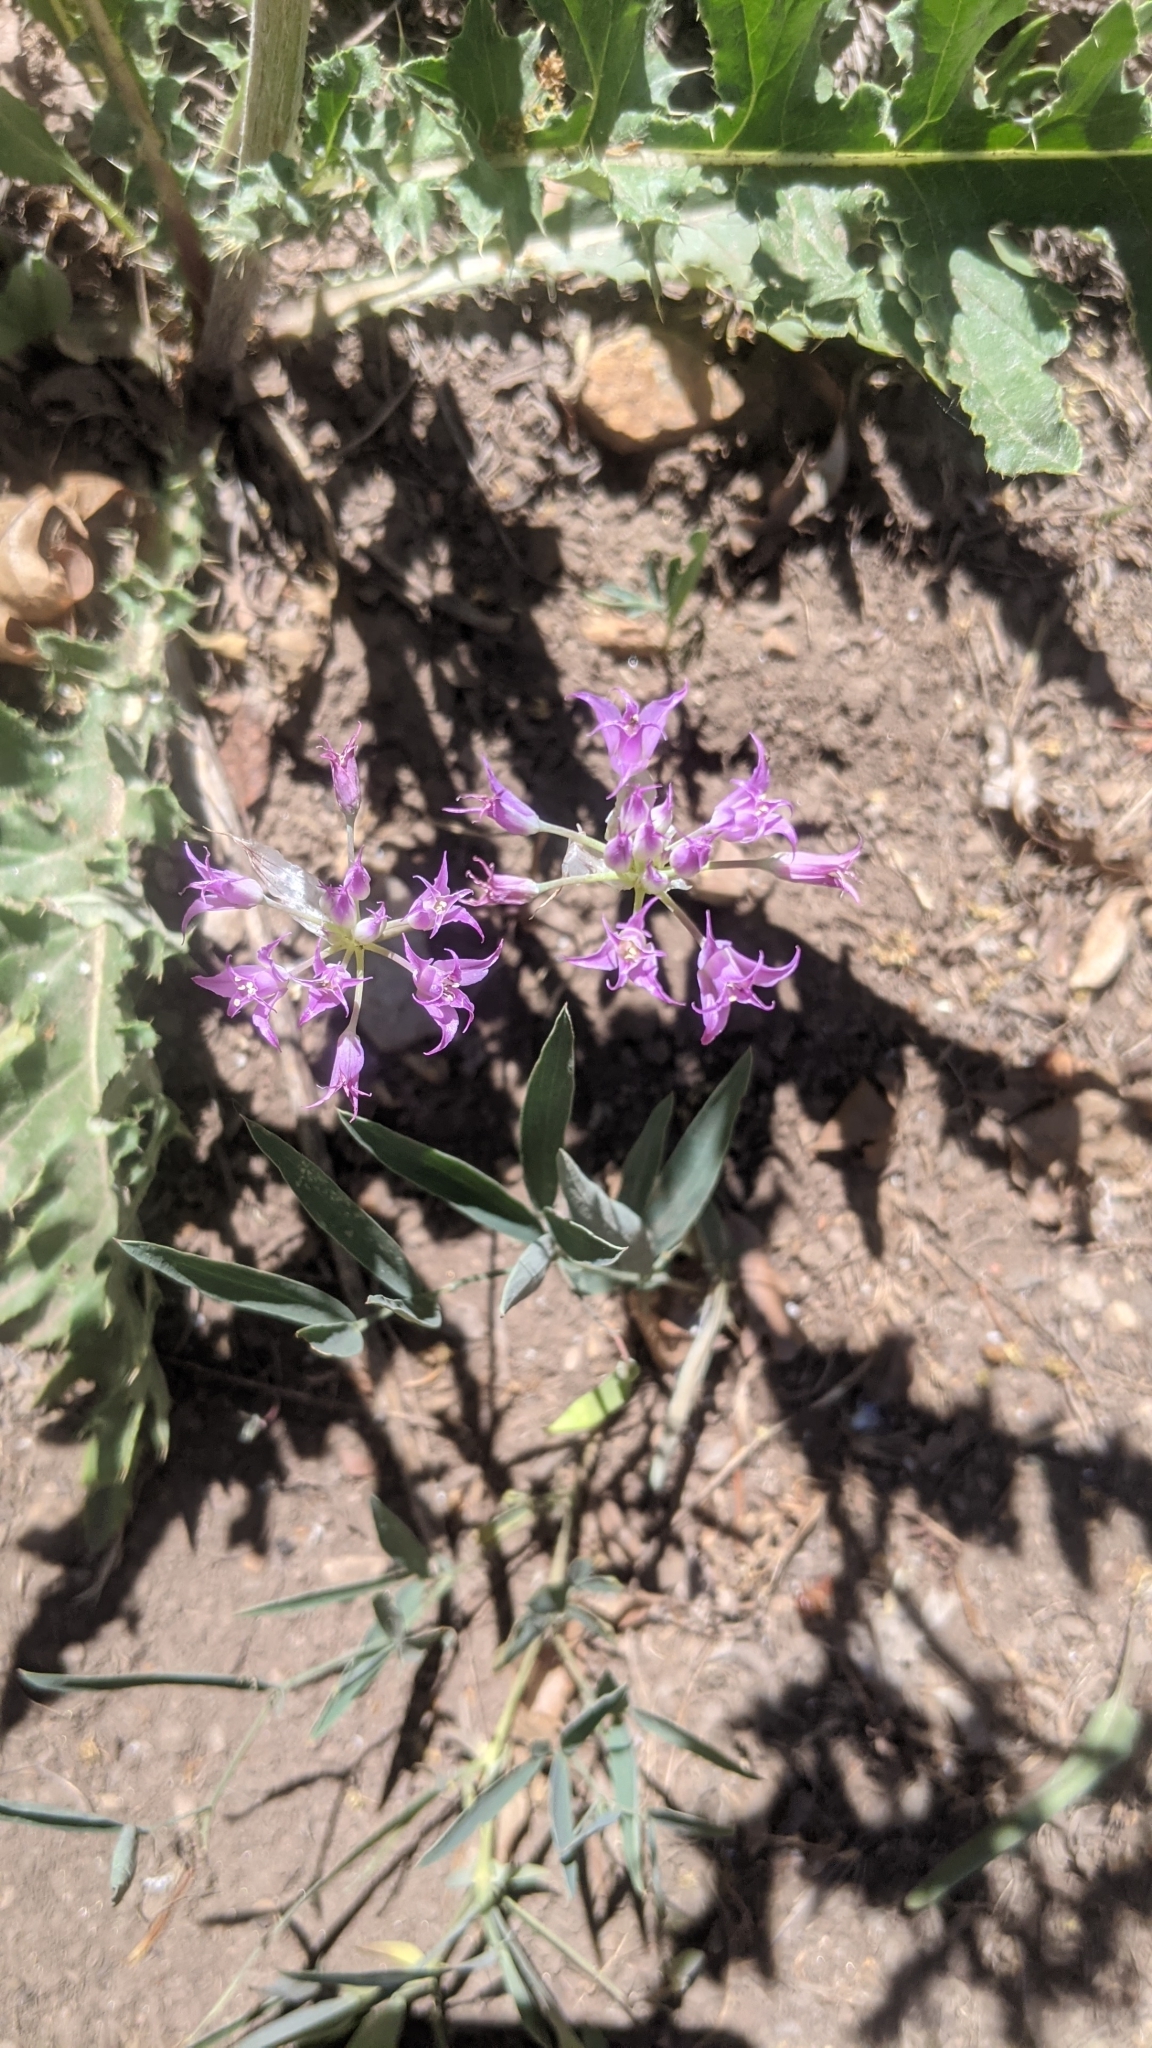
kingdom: Plantae
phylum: Tracheophyta
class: Liliopsida
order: Asparagales
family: Amaryllidaceae
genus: Allium
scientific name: Allium acuminatum
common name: Hooker's onion
